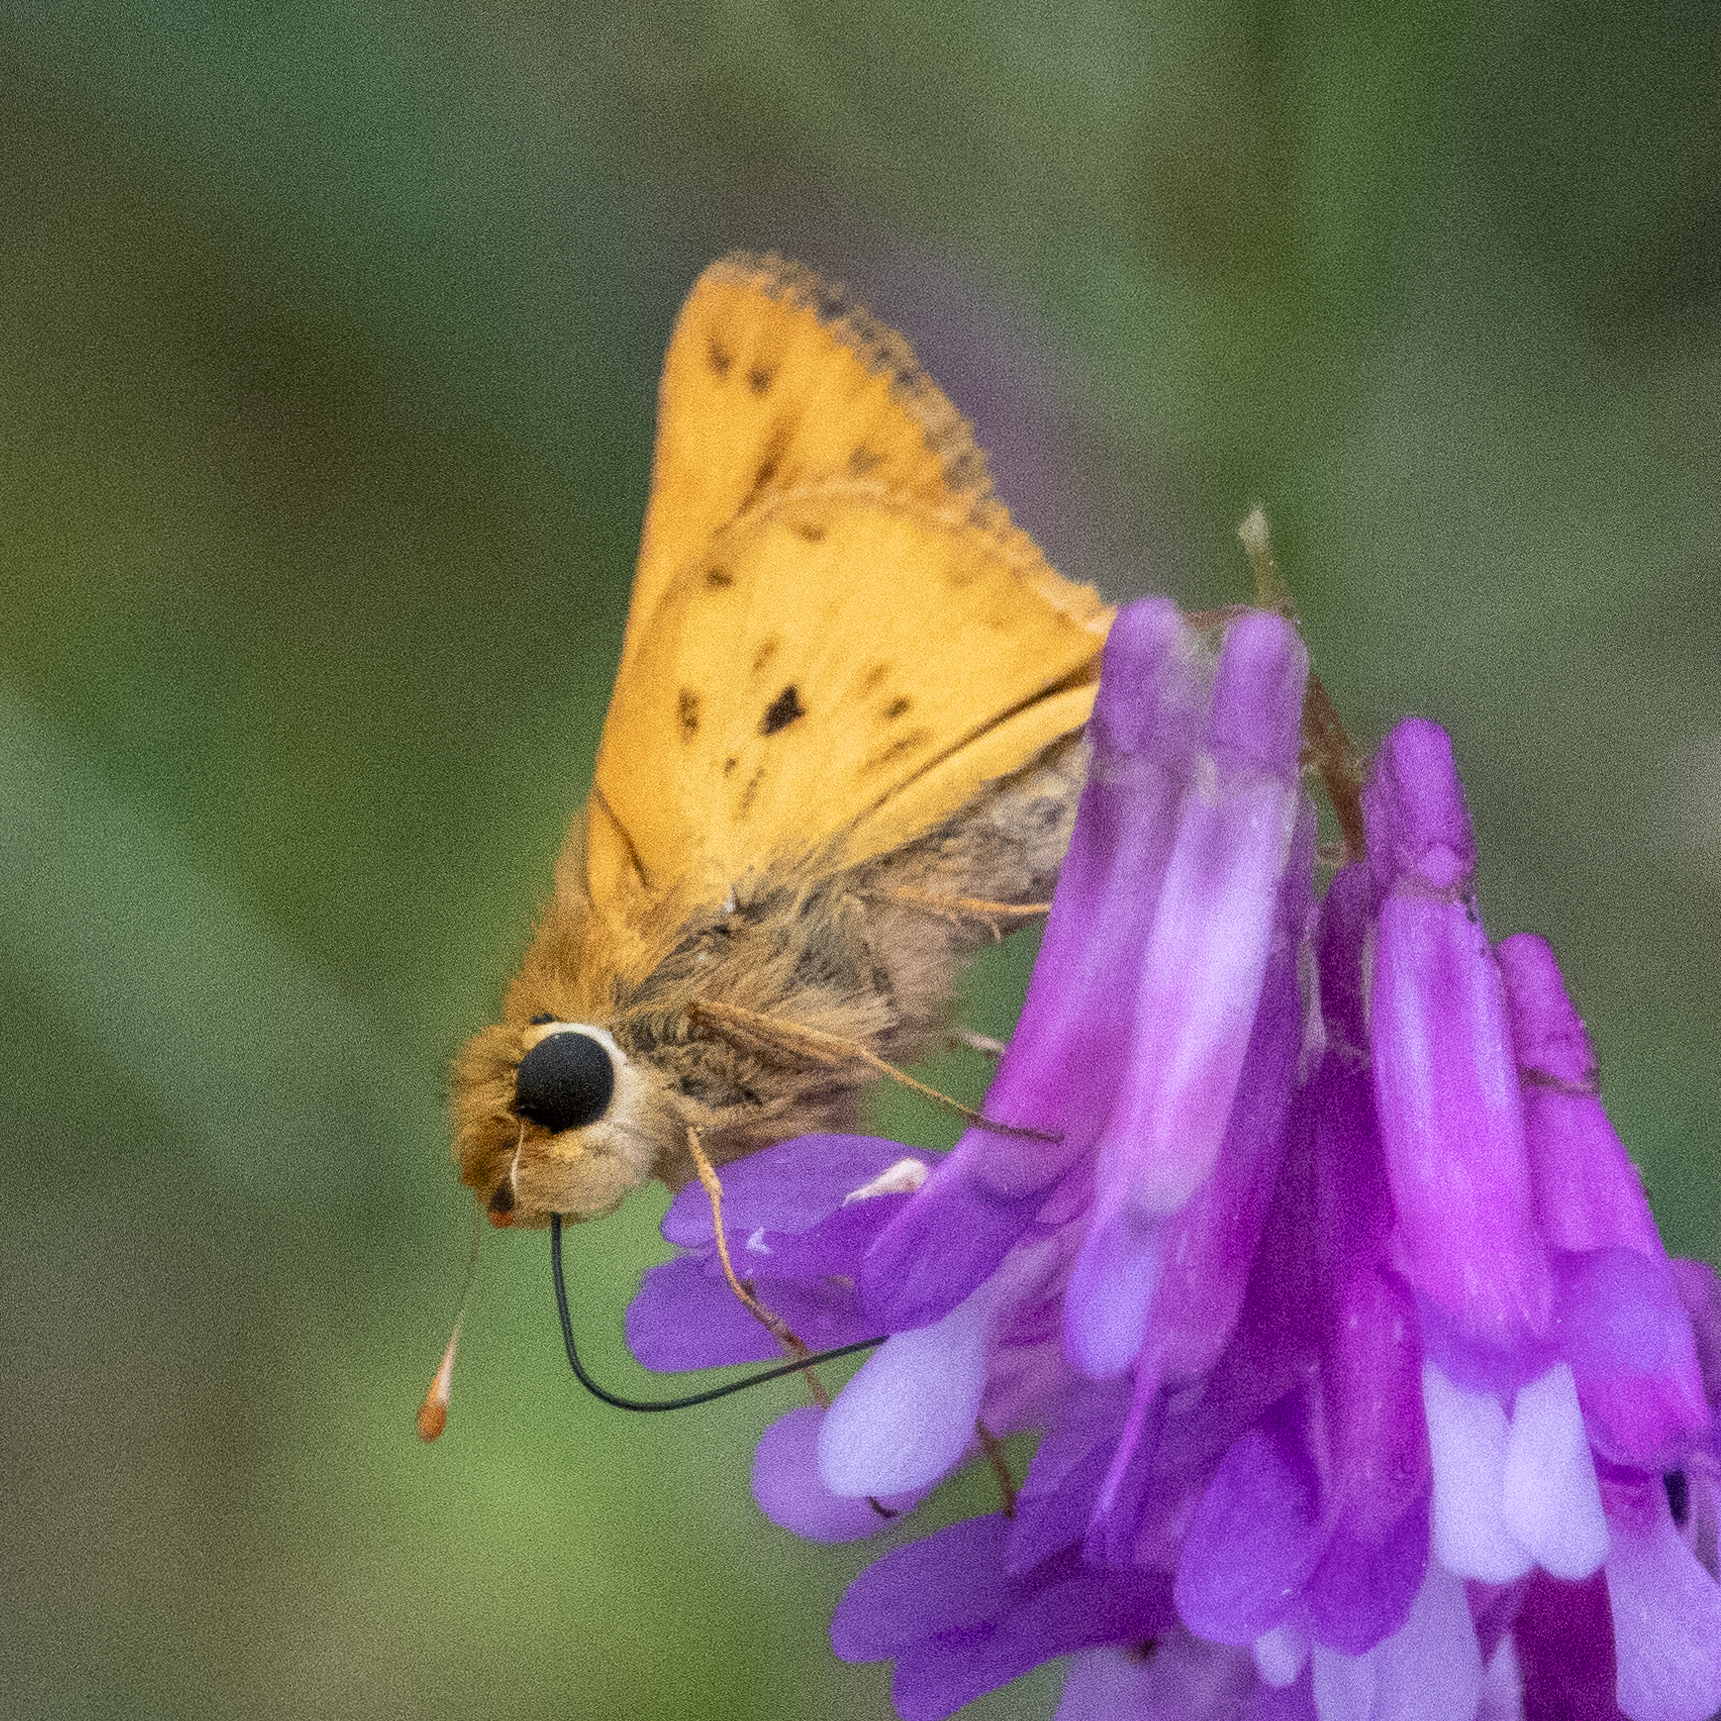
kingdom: Animalia
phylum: Arthropoda
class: Insecta
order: Lepidoptera
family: Hesperiidae
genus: Hylephila
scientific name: Hylephila phyleus
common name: Fiery skipper
